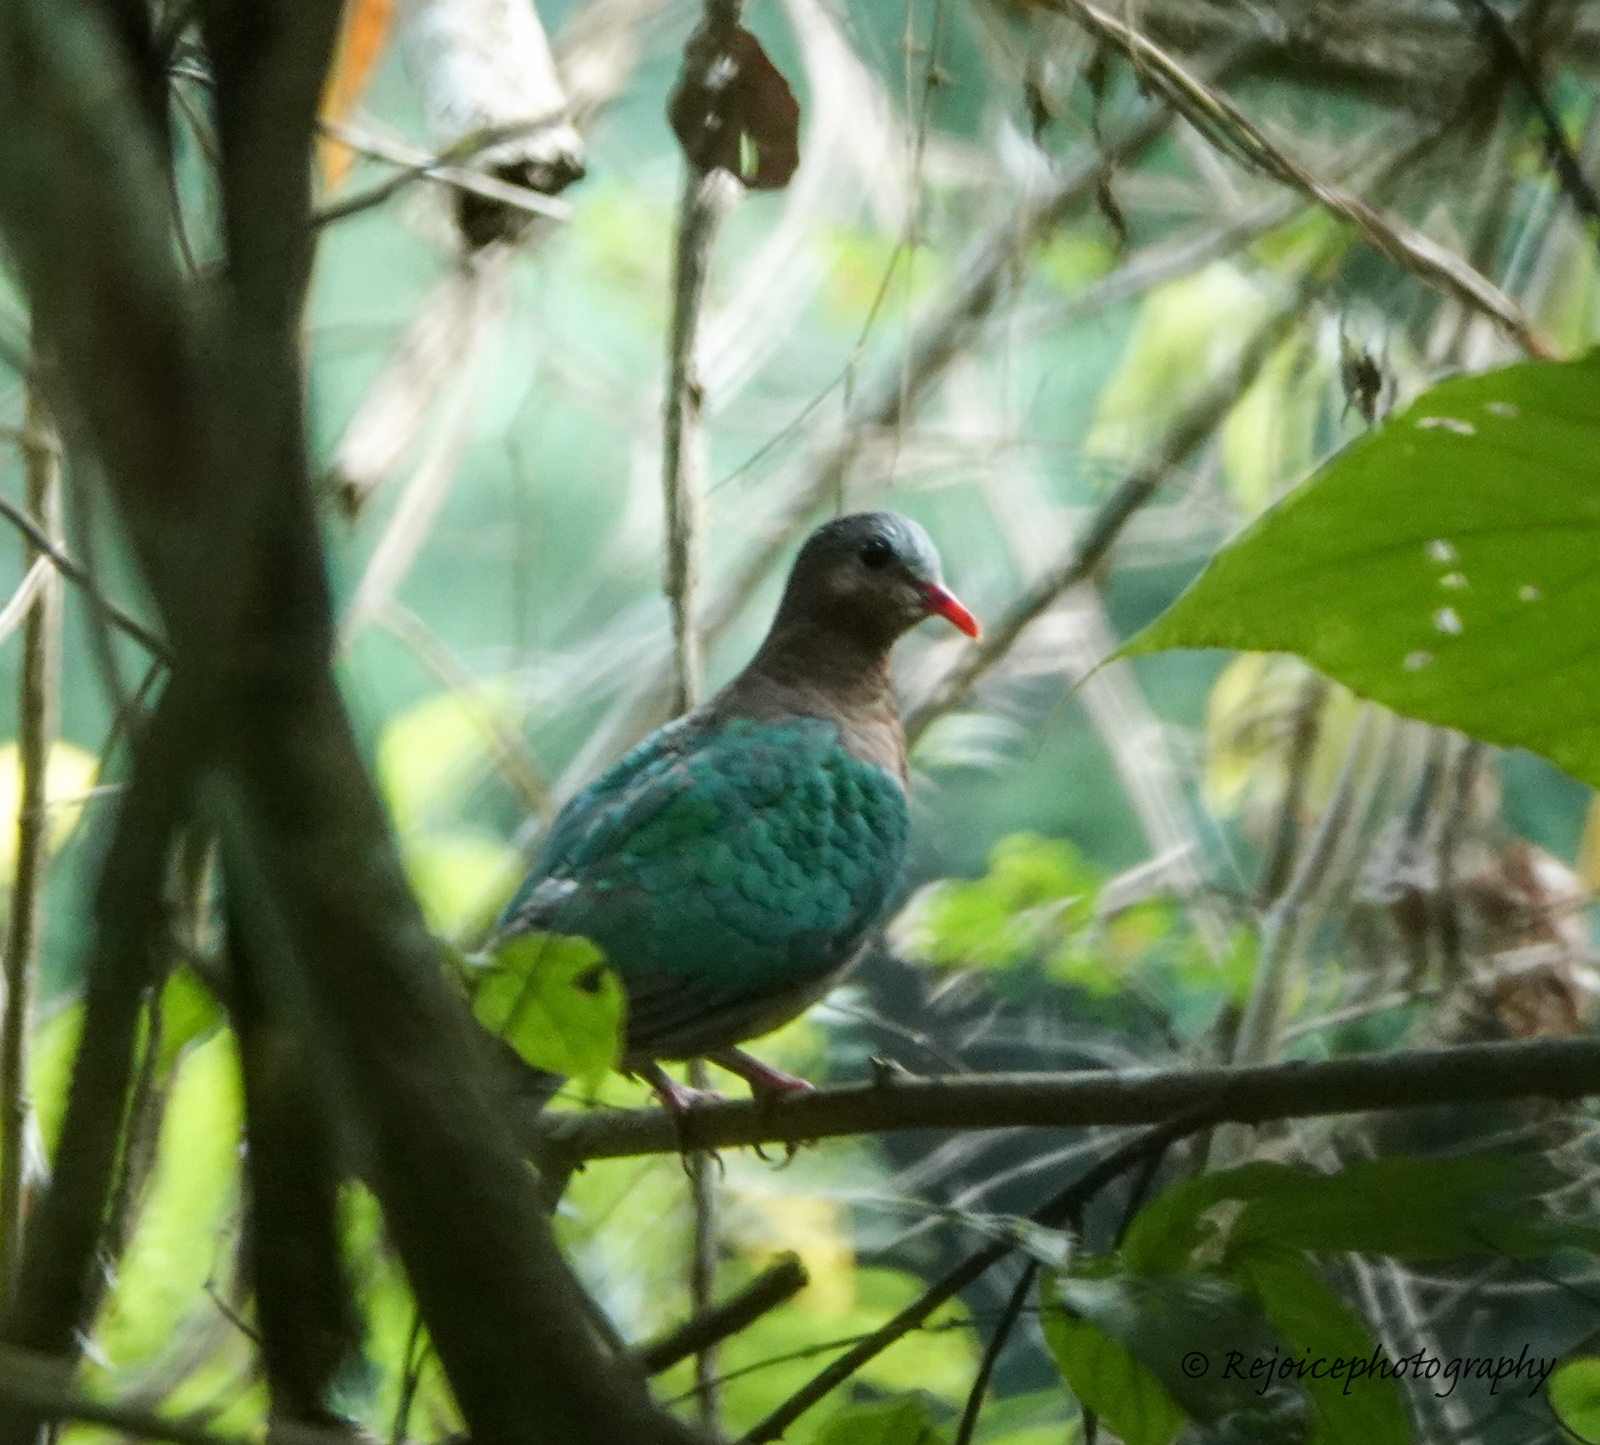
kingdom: Animalia
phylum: Chordata
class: Aves
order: Columbiformes
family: Columbidae
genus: Chalcophaps
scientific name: Chalcophaps indica
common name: Common emerald dove
